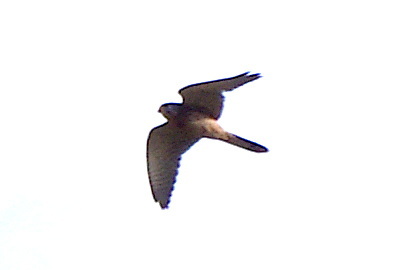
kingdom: Animalia
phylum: Chordata
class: Aves
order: Falconiformes
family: Falconidae
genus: Falco
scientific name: Falco tinnunculus
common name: Common kestrel
